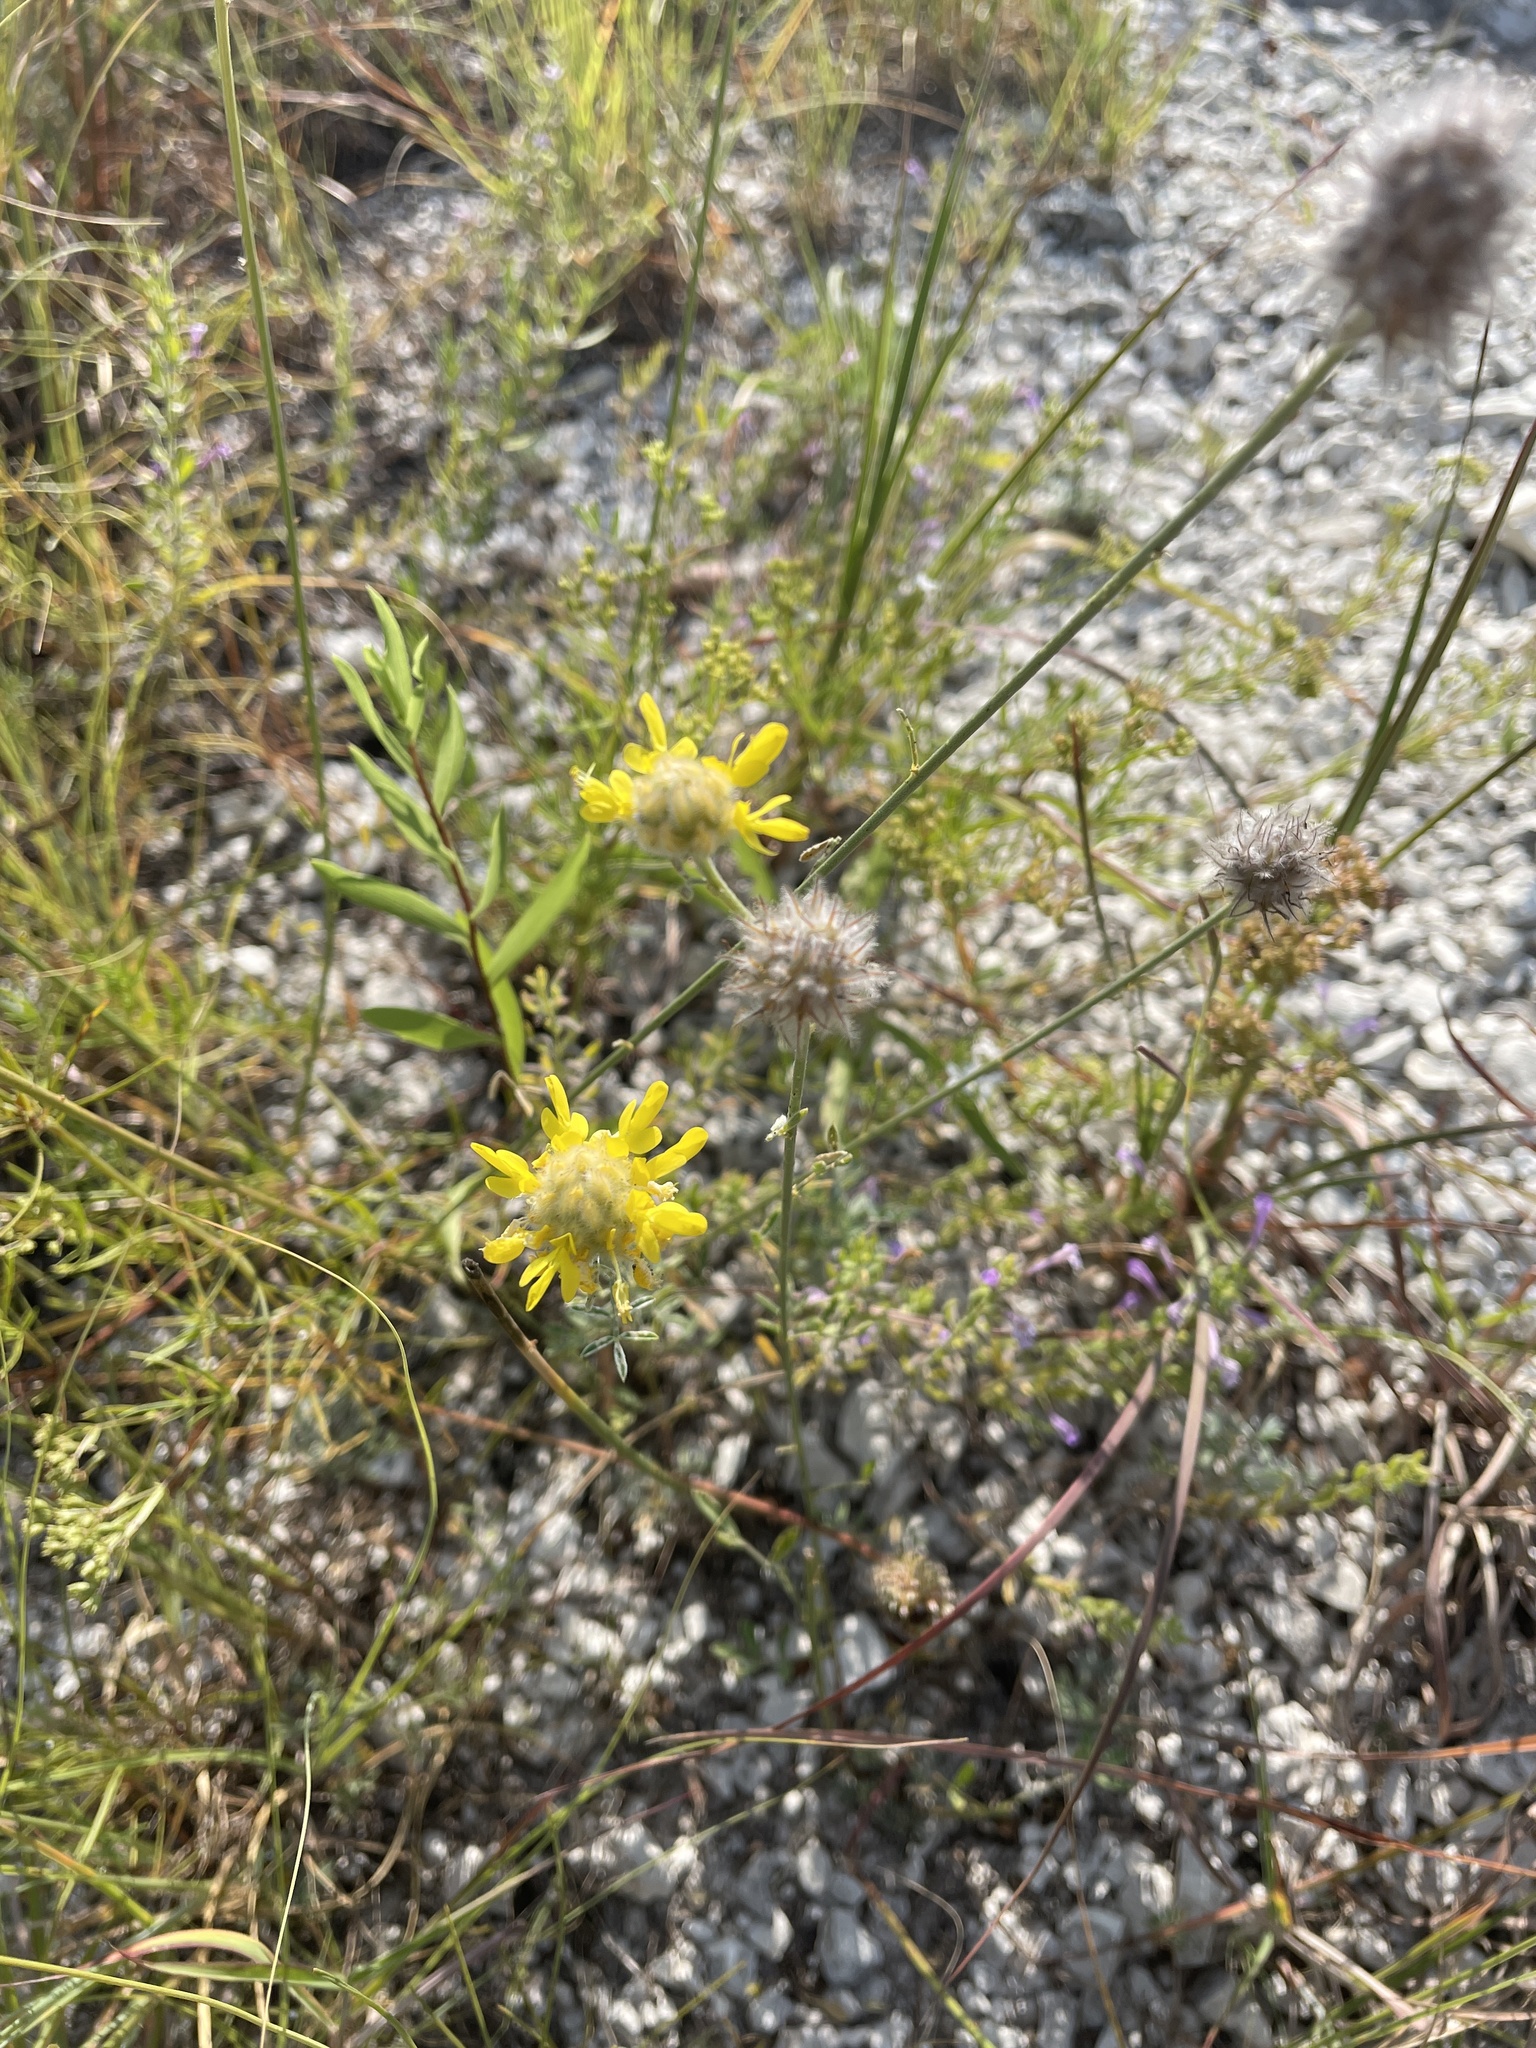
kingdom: Plantae
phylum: Tracheophyta
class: Magnoliopsida
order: Fabales
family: Fabaceae
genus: Dalea
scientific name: Dalea aurea
